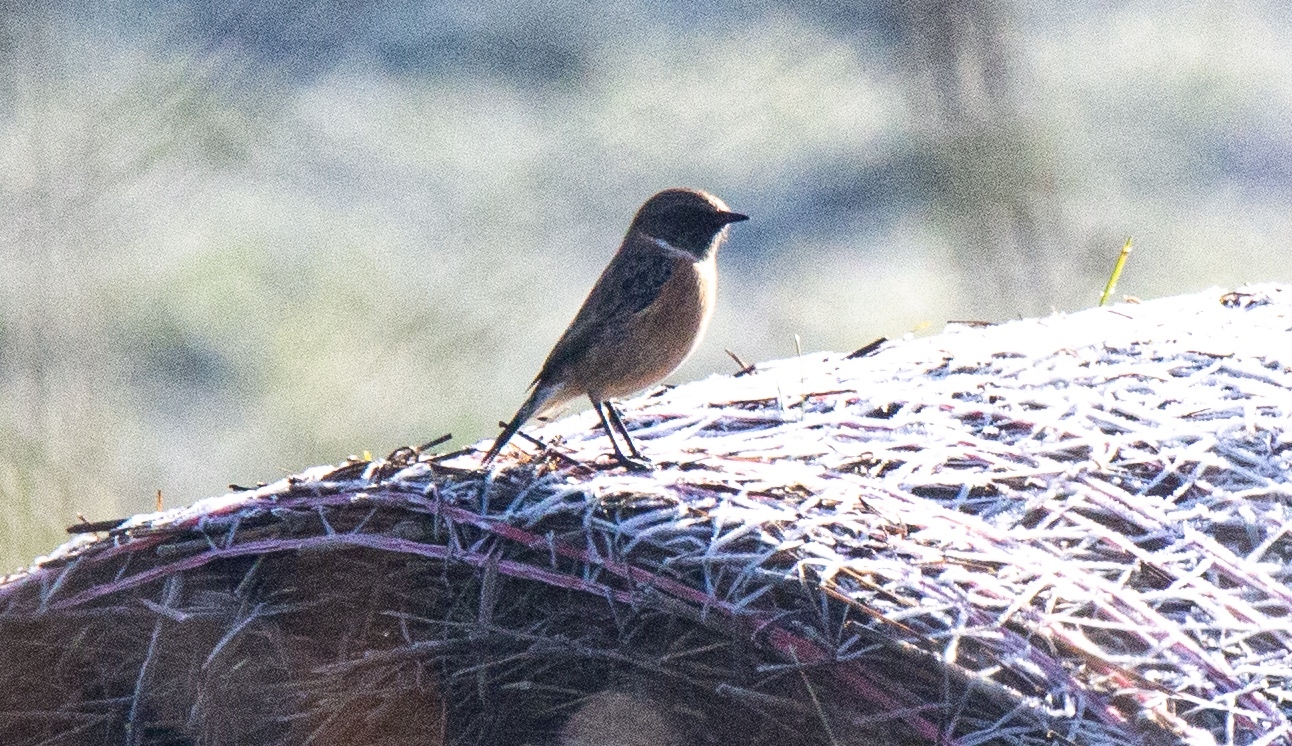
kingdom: Animalia
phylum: Chordata
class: Aves
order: Passeriformes
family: Muscicapidae
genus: Saxicola
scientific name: Saxicola rubicola
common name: European stonechat
